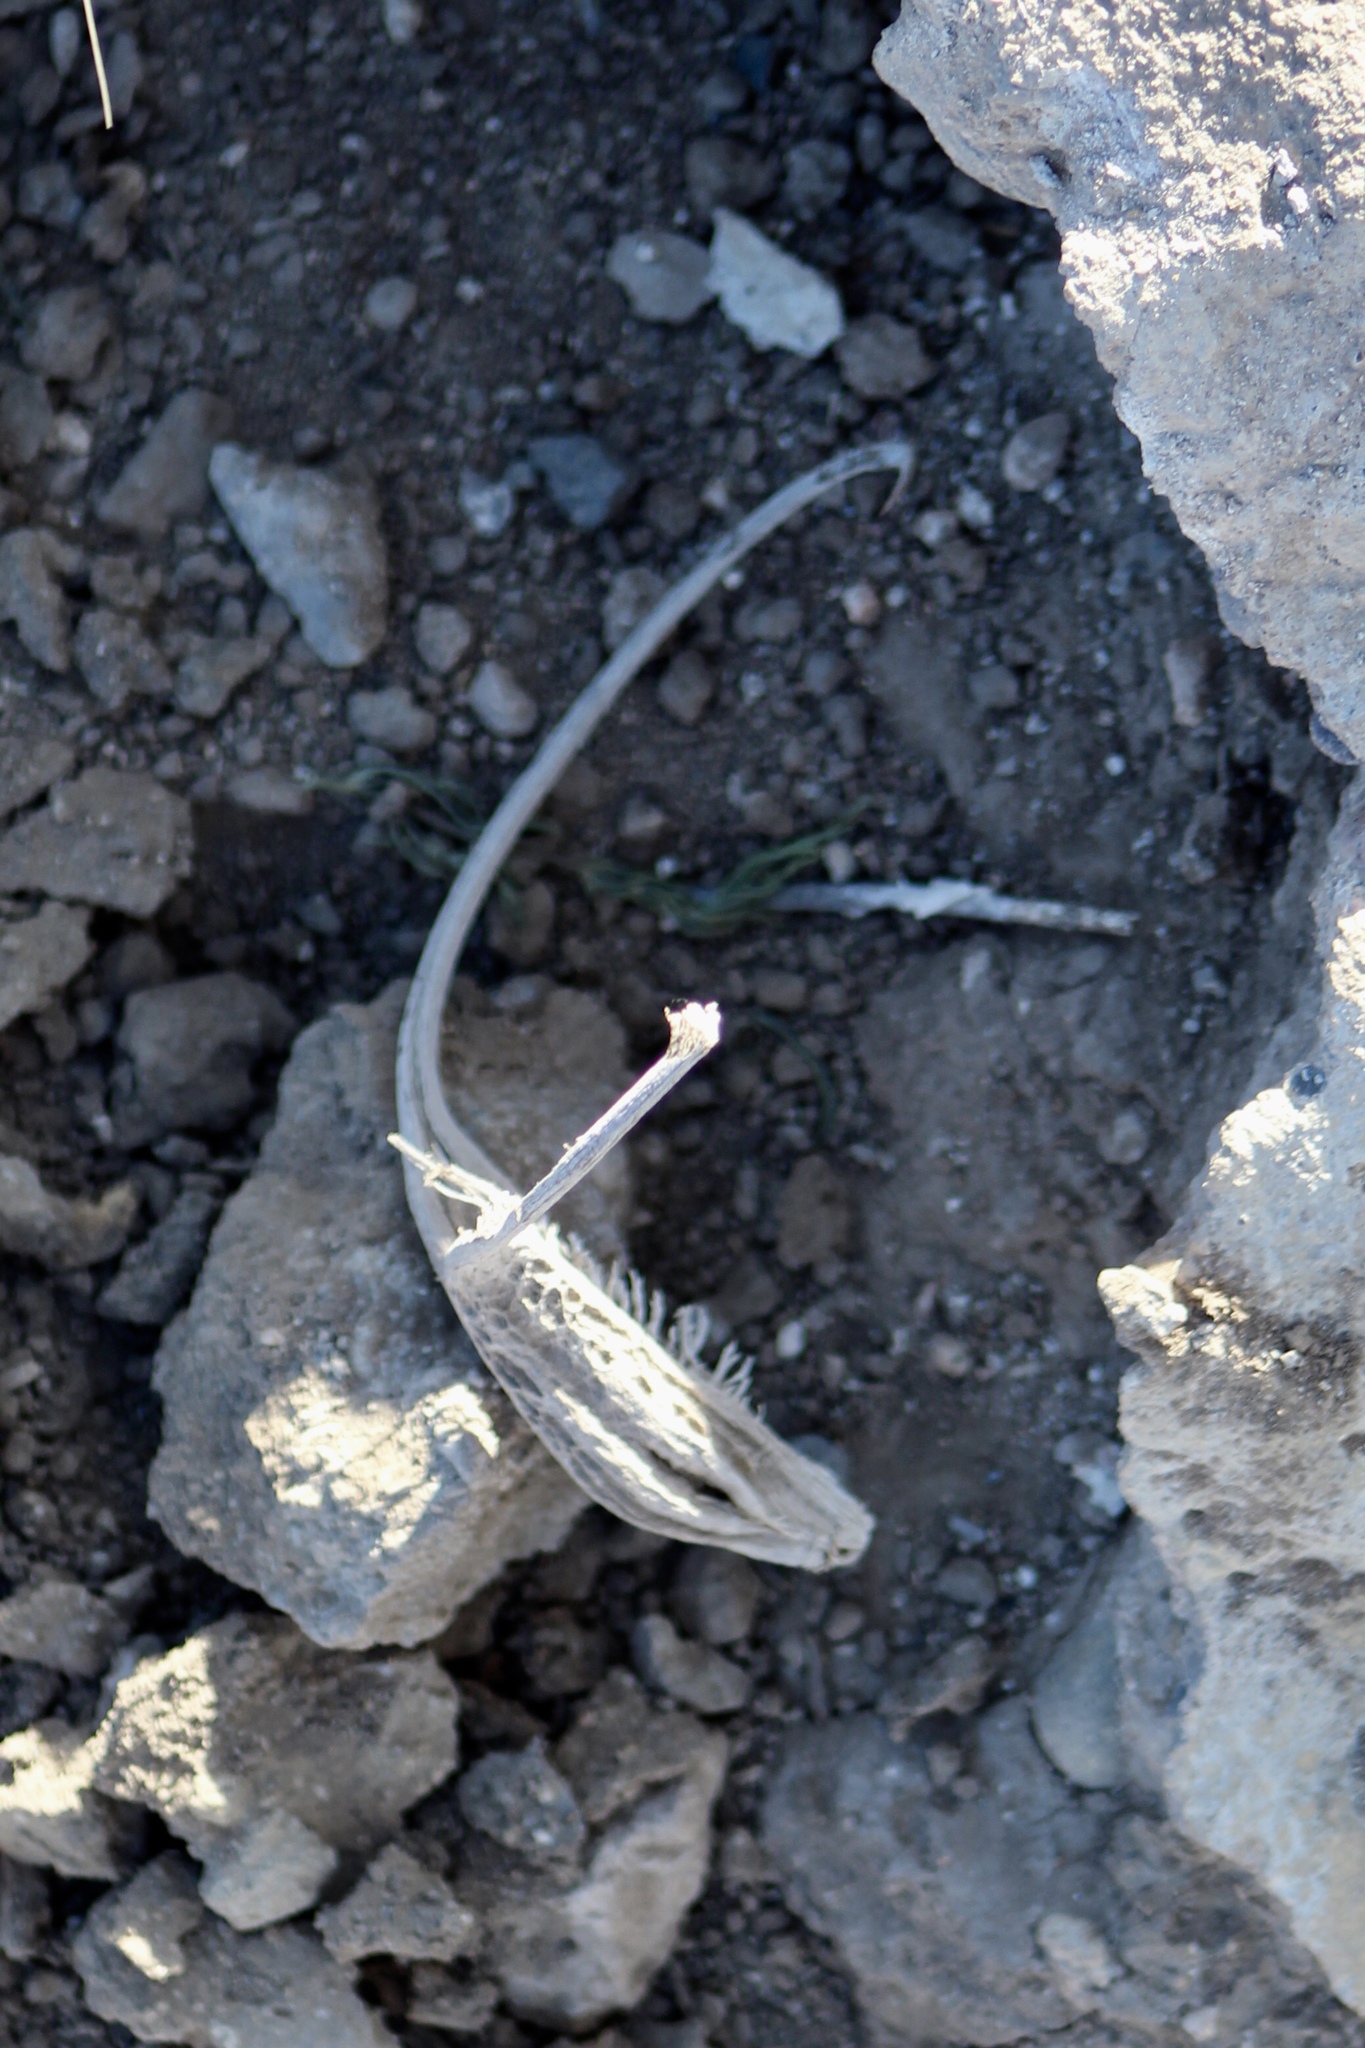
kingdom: Plantae
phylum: Tracheophyta
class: Magnoliopsida
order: Lamiales
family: Martyniaceae
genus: Proboscidea
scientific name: Proboscidea parviflora
